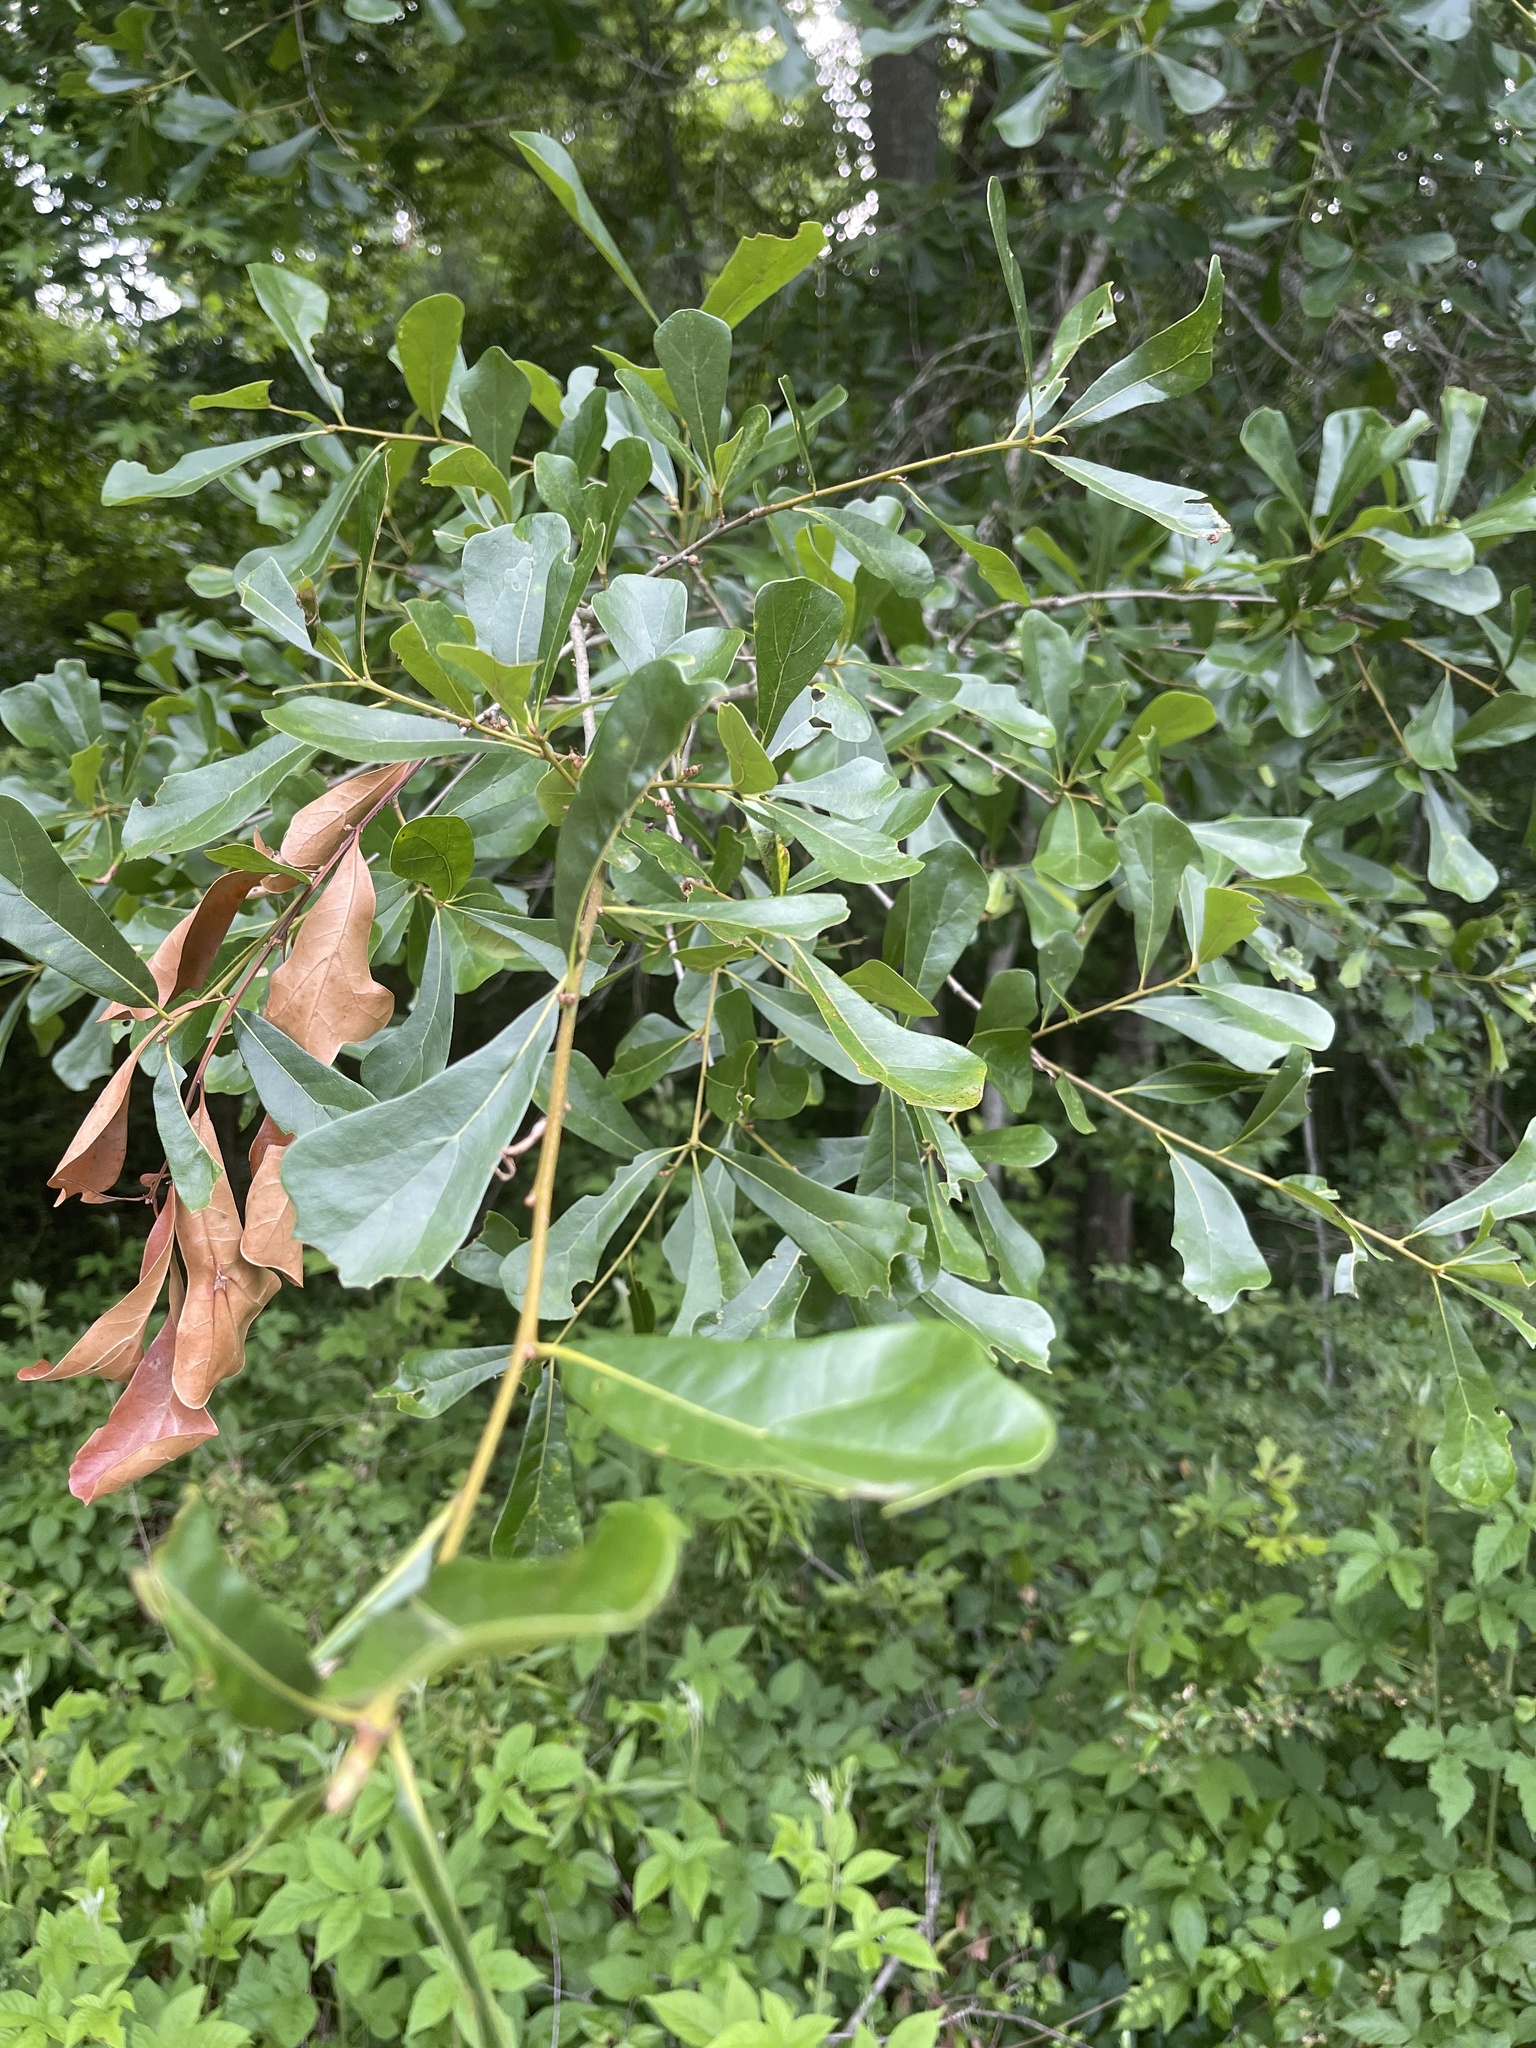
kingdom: Plantae
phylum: Tracheophyta
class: Magnoliopsida
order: Fagales
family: Fagaceae
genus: Quercus
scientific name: Quercus nigra
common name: Water oak
